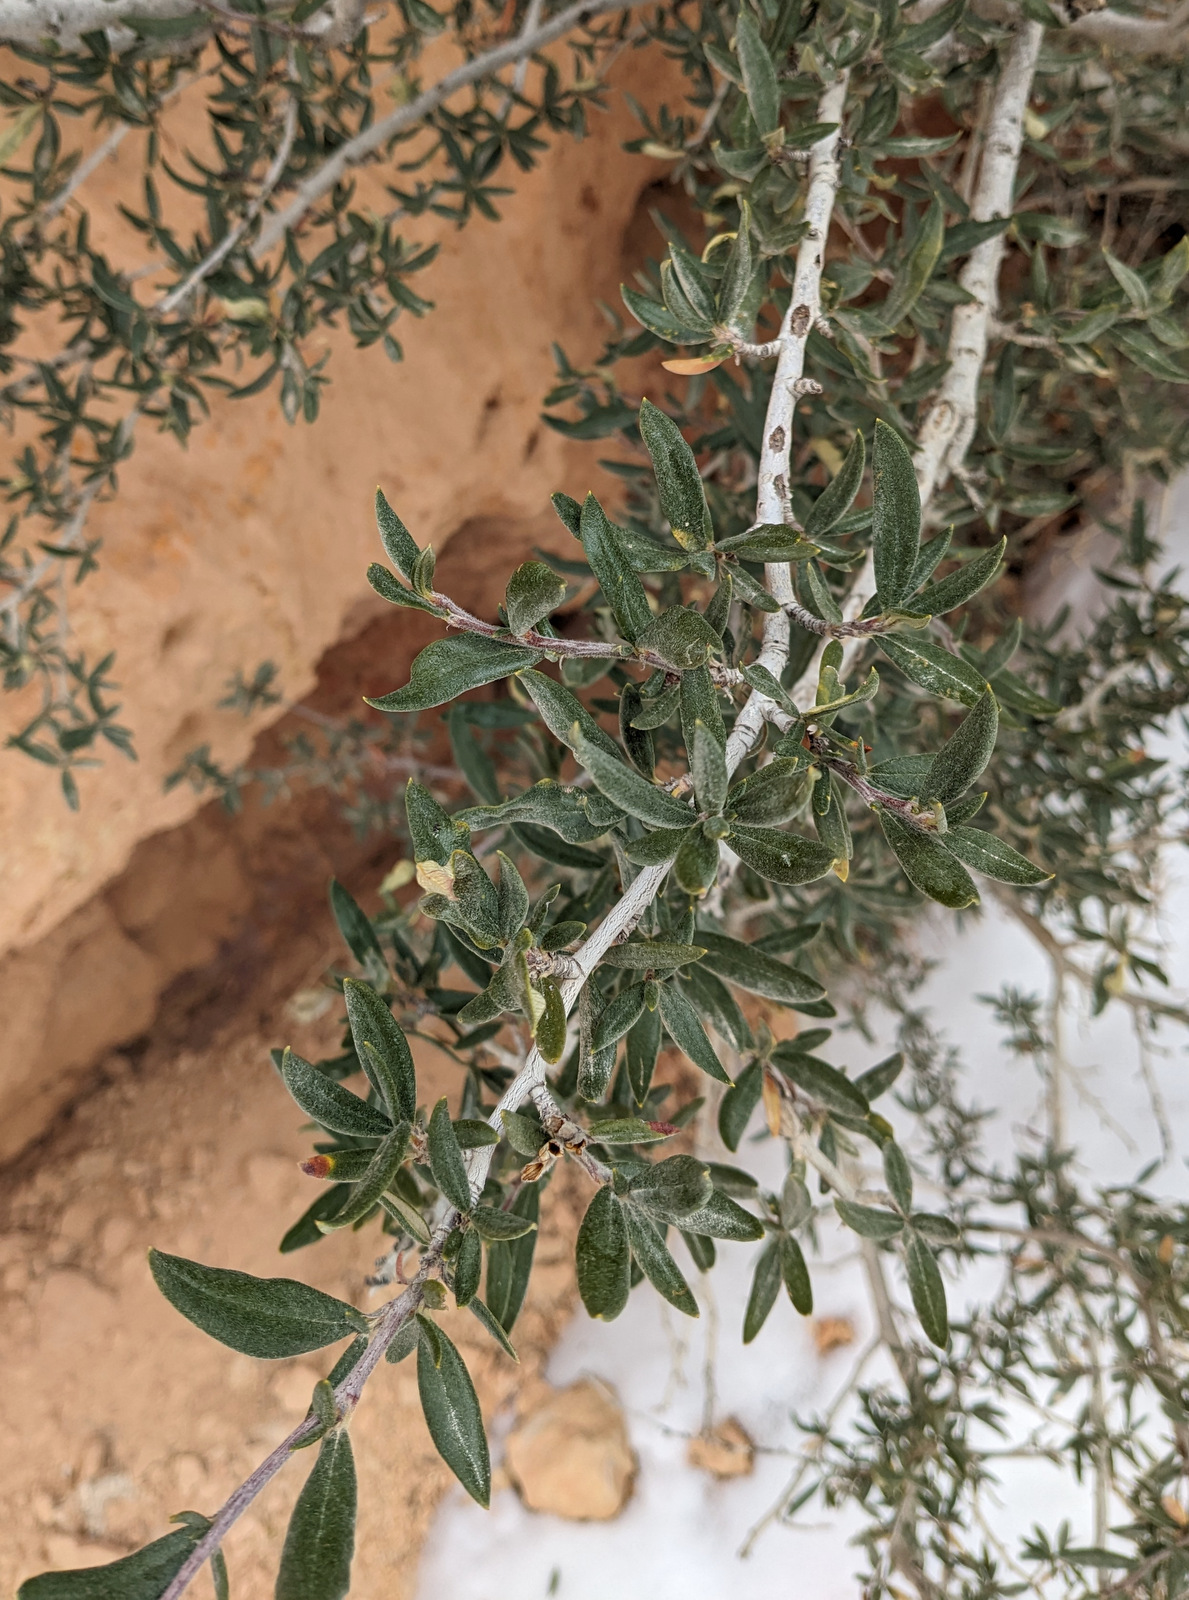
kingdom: Plantae
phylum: Tracheophyta
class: Magnoliopsida
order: Rosales
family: Rosaceae
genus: Cercocarpus
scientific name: Cercocarpus ledifolius
